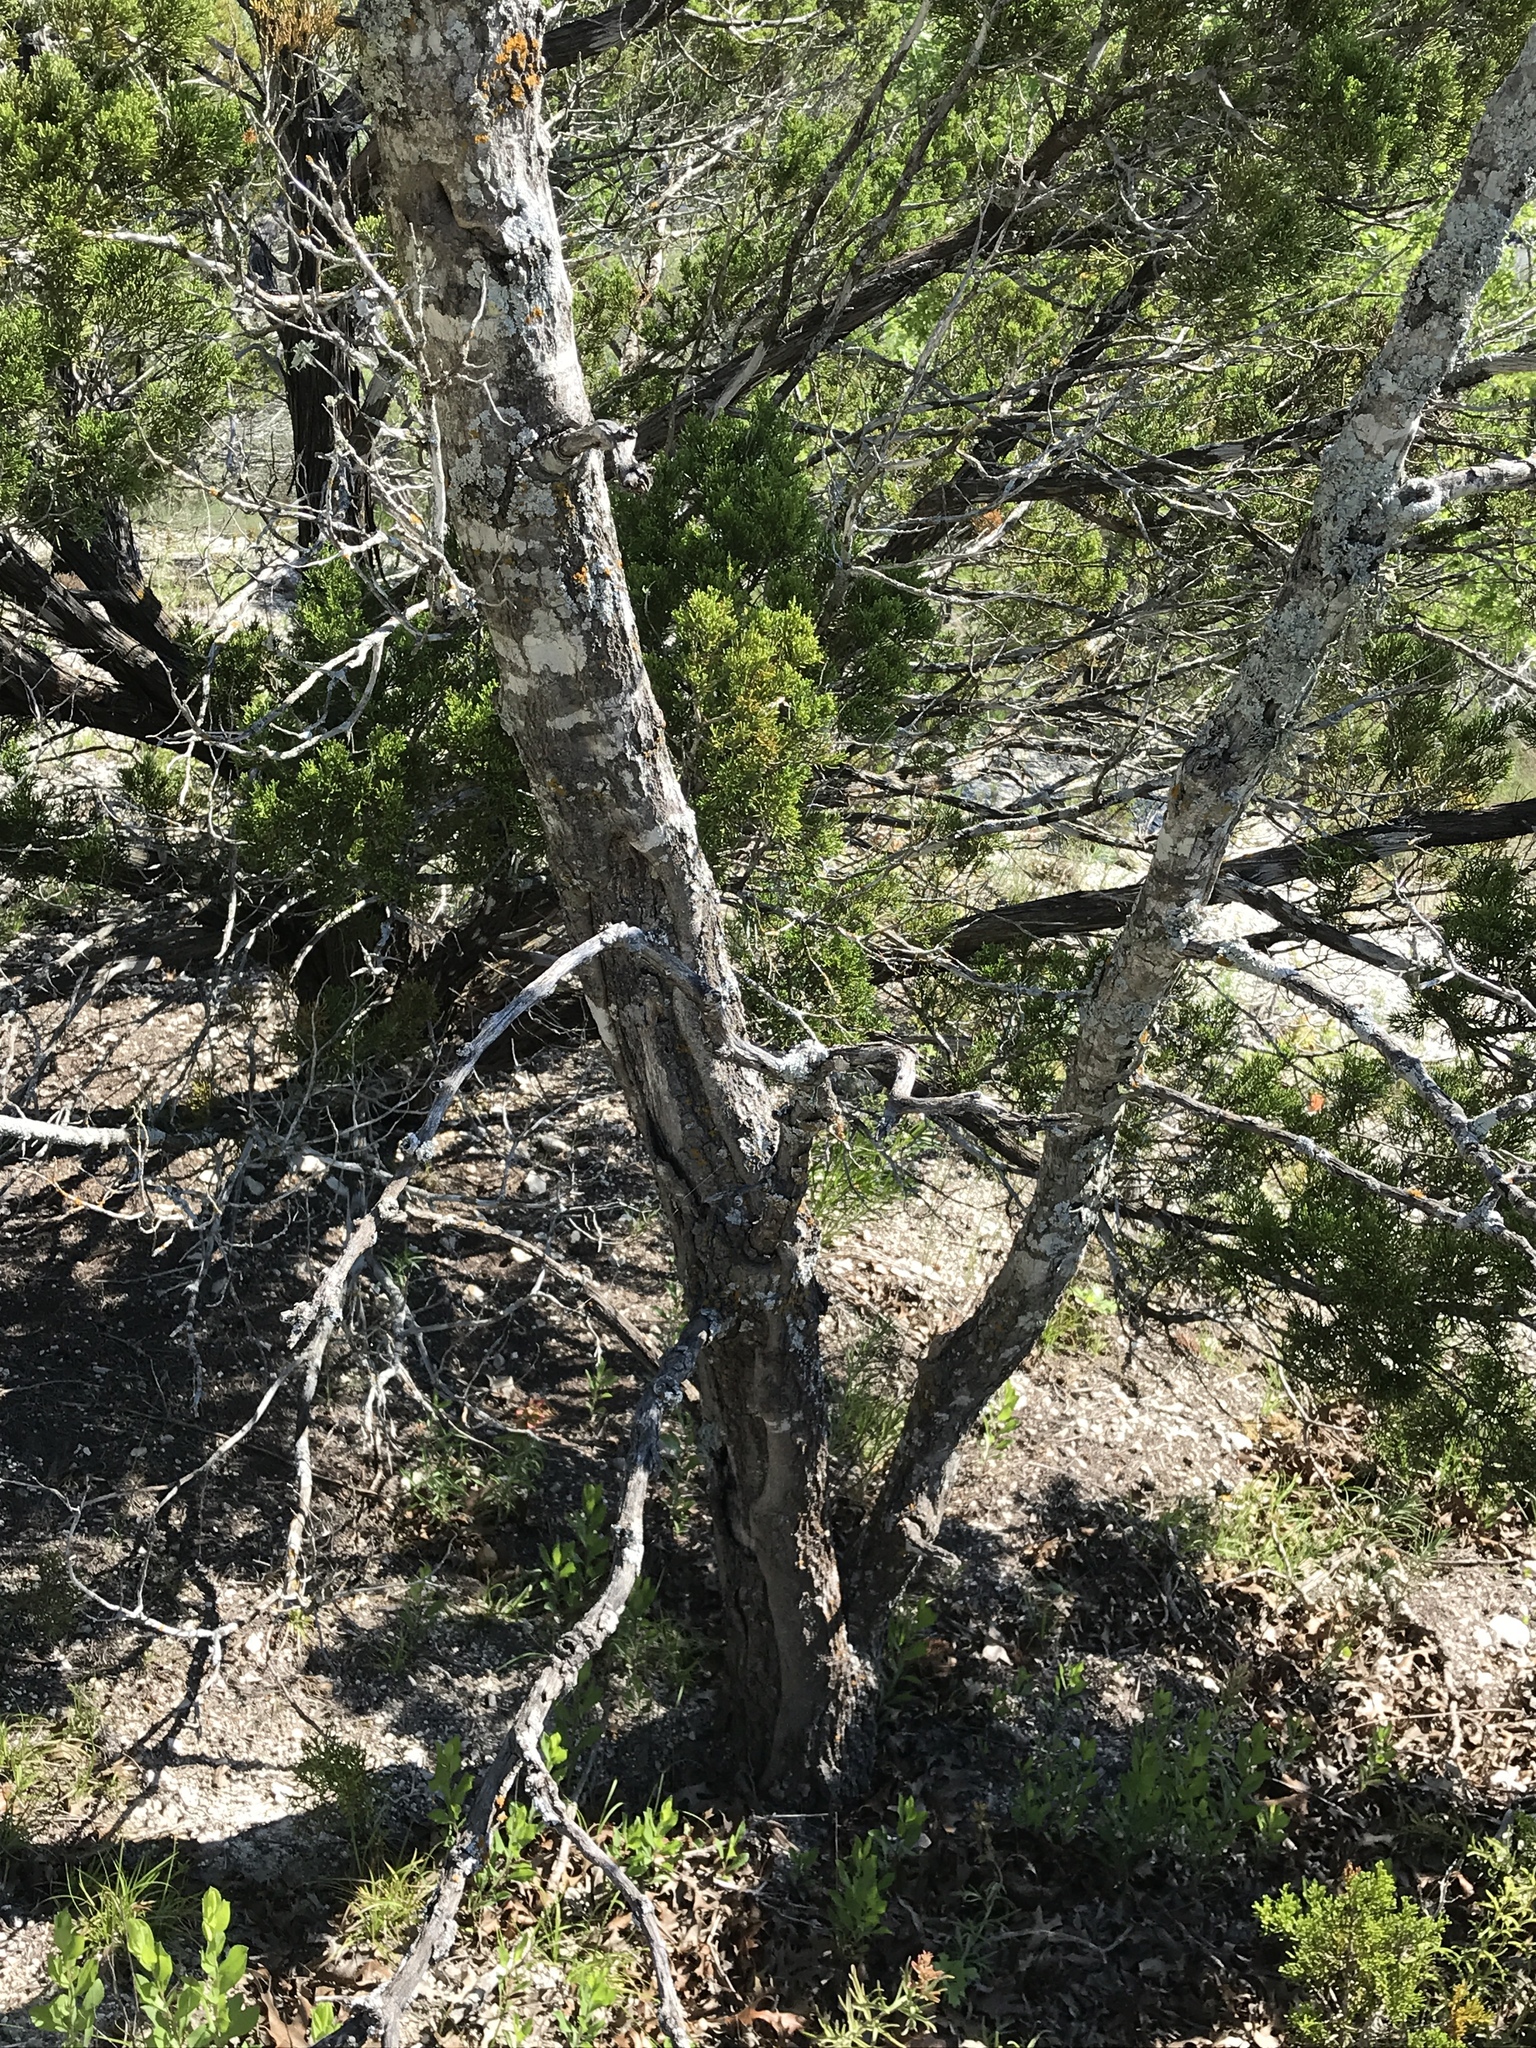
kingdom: Plantae
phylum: Tracheophyta
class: Magnoliopsida
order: Fagales
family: Fagaceae
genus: Quercus
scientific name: Quercus buckleyi
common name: Buckley oak
